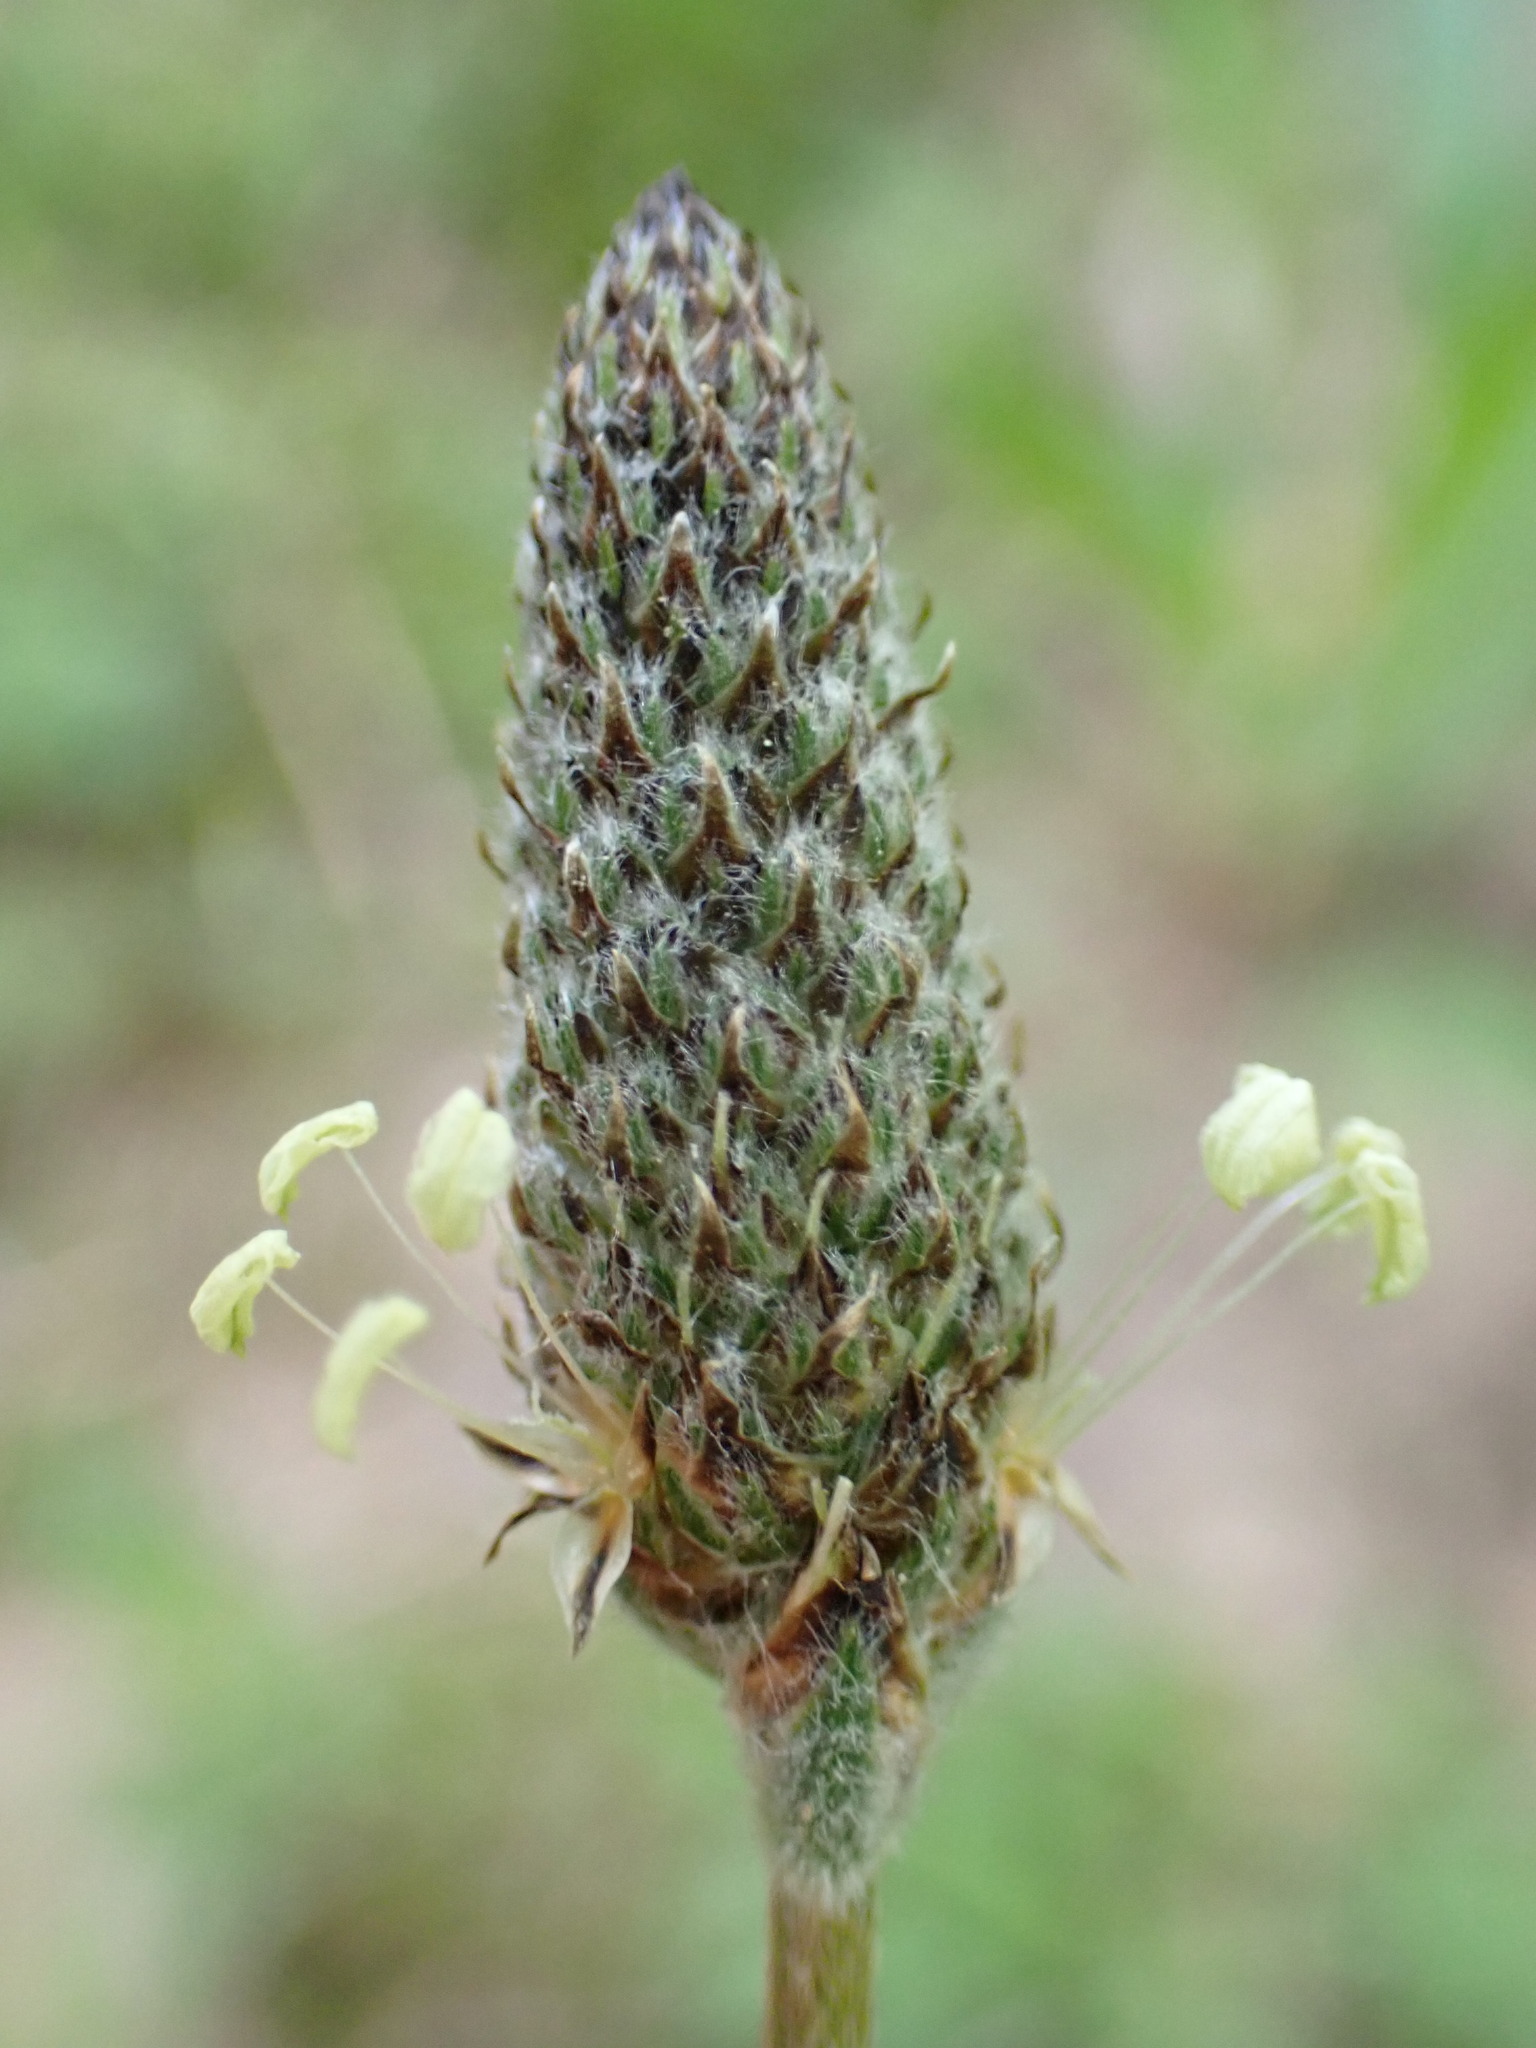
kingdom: Plantae
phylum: Tracheophyta
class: Magnoliopsida
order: Lamiales
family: Plantaginaceae
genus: Plantago
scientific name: Plantago lanceolata
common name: Ribwort plantain
